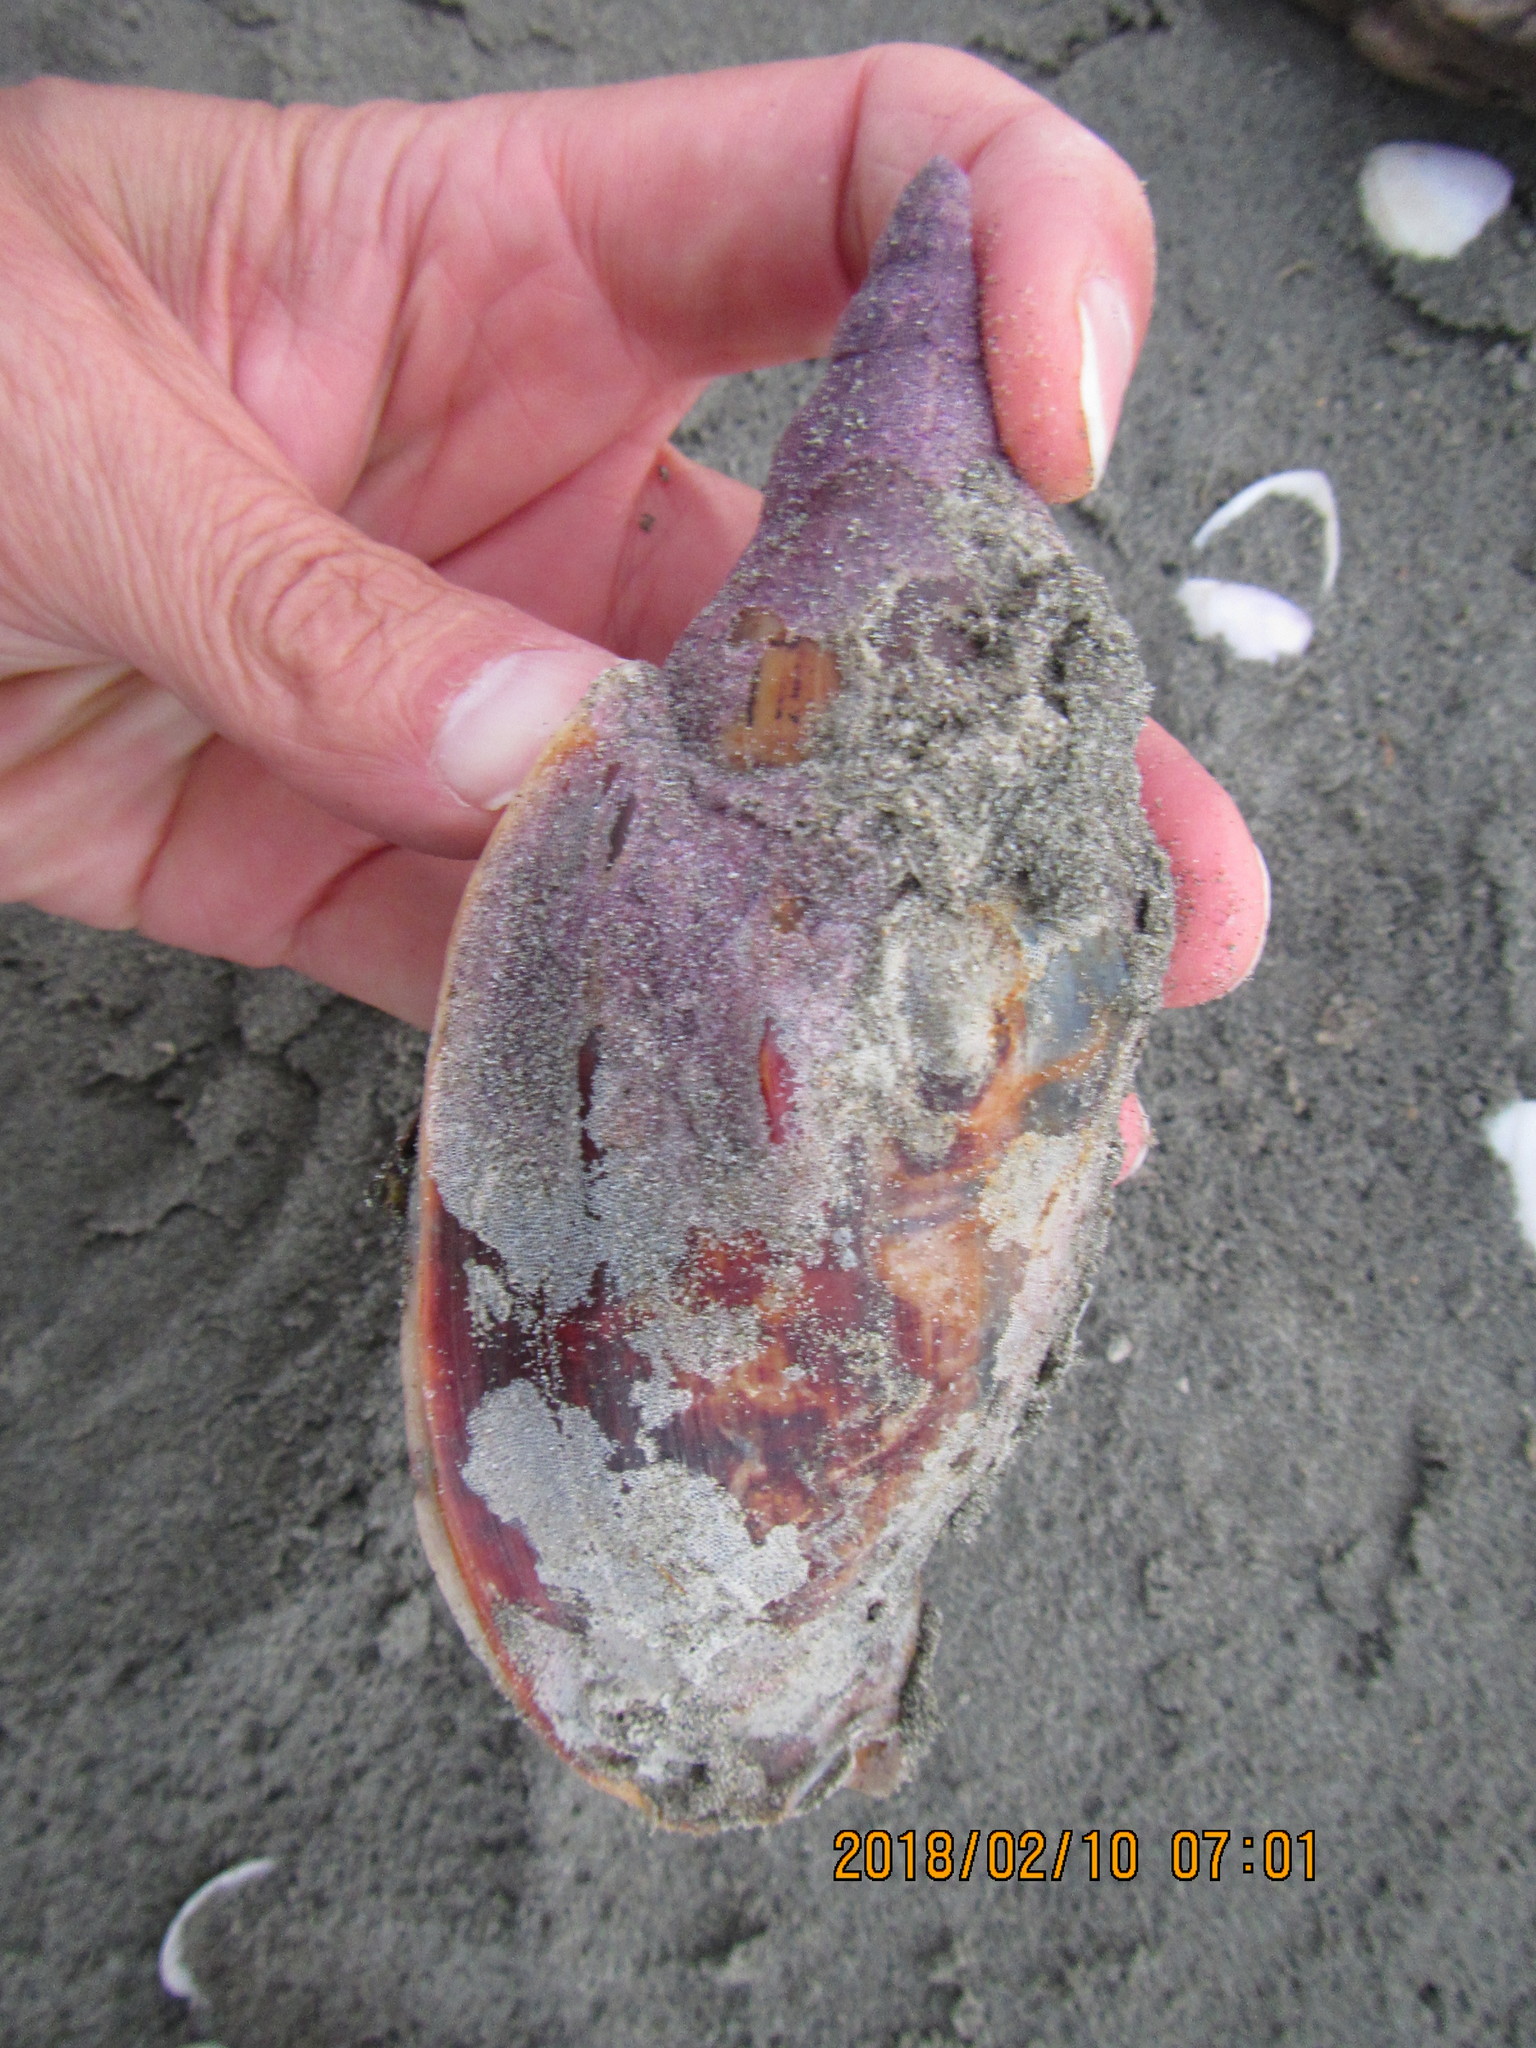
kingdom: Animalia
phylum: Mollusca
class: Gastropoda
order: Neogastropoda
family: Volutidae
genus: Alcithoe
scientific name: Alcithoe arabica
